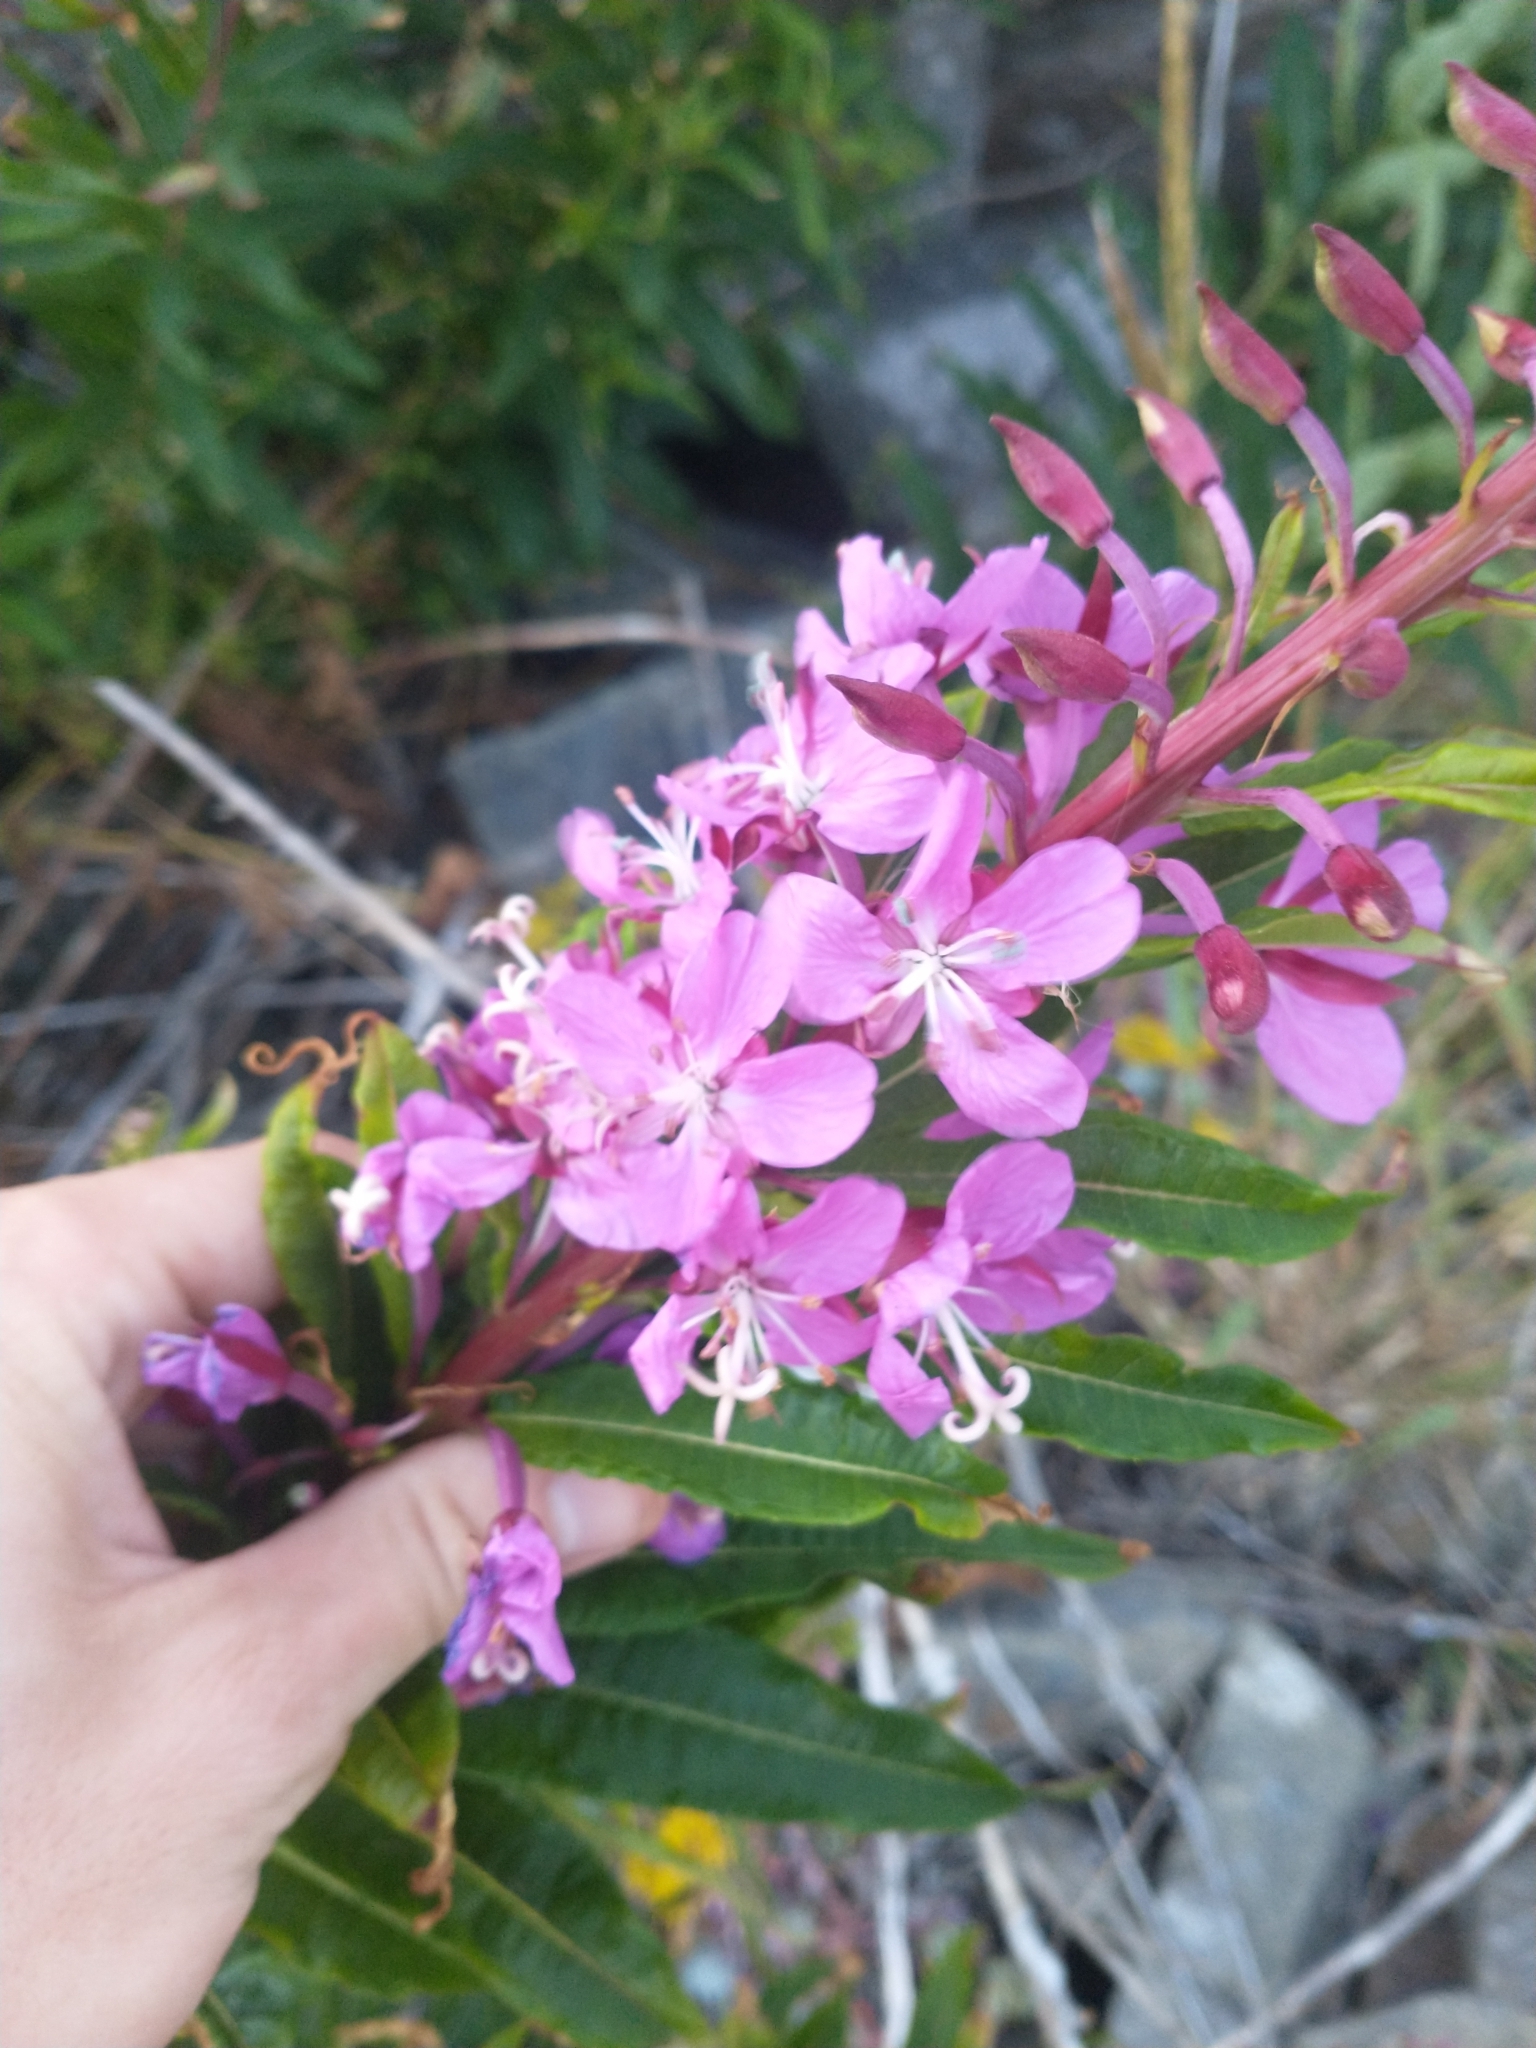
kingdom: Plantae
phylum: Tracheophyta
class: Magnoliopsida
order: Myrtales
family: Onagraceae
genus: Chamaenerion
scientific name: Chamaenerion angustifolium
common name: Fireweed
